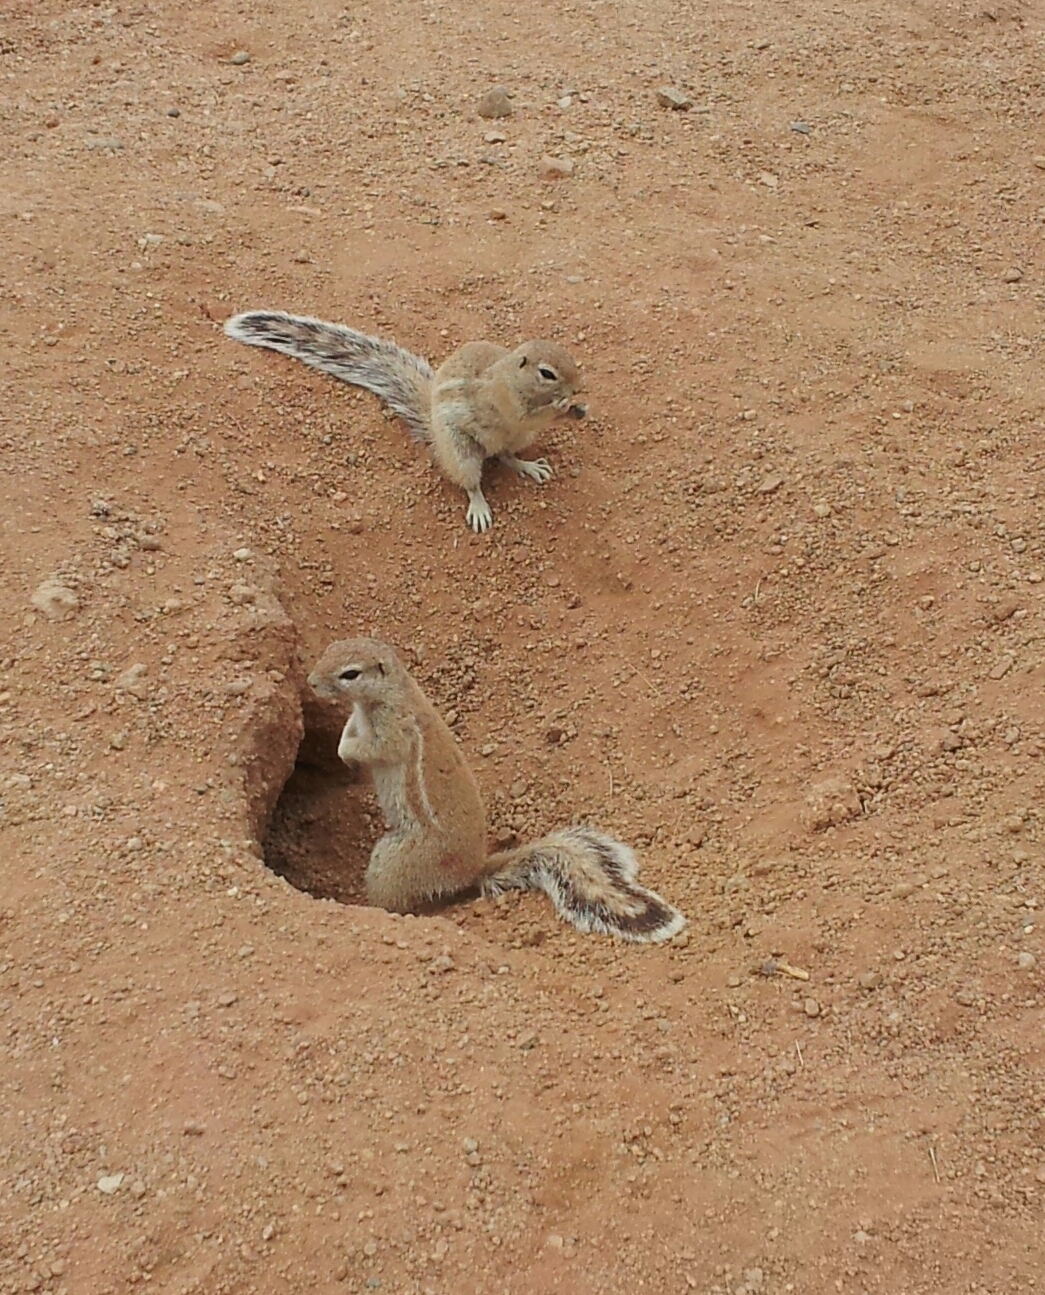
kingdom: Animalia
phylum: Chordata
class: Mammalia
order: Rodentia
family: Sciuridae
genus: Xerus
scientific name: Xerus inauris
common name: South african ground squirrel
